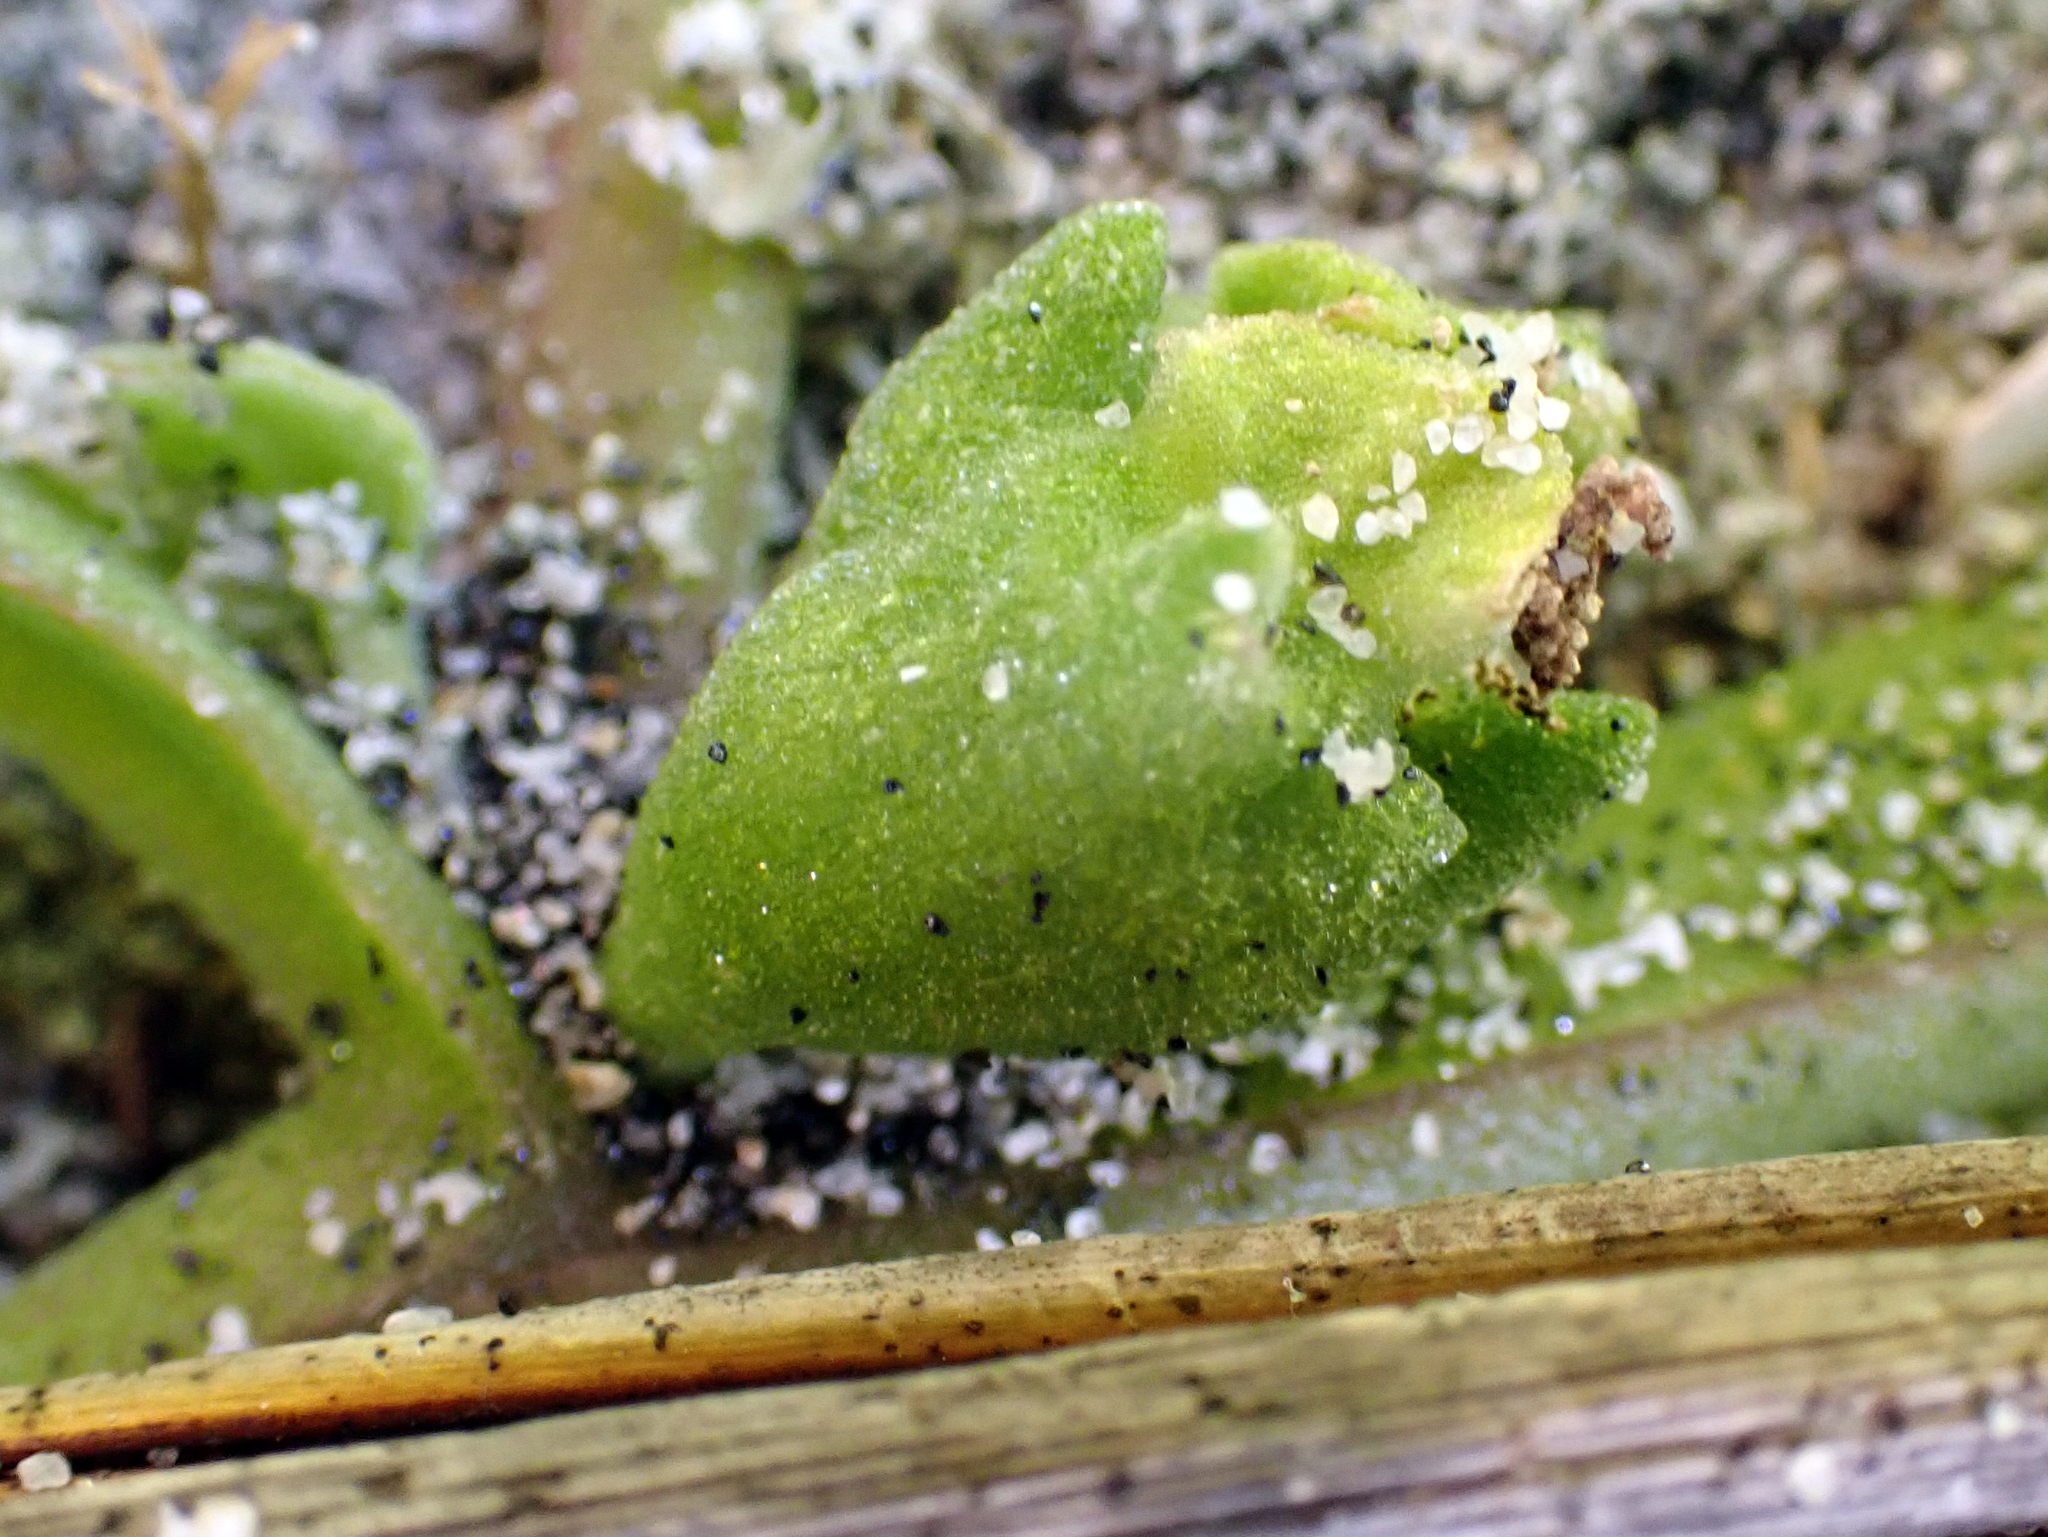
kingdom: Plantae
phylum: Tracheophyta
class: Magnoliopsida
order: Caryophyllales
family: Aizoaceae
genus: Tetragonia
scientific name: Tetragonia tetragonoides
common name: New zealand-spinach
